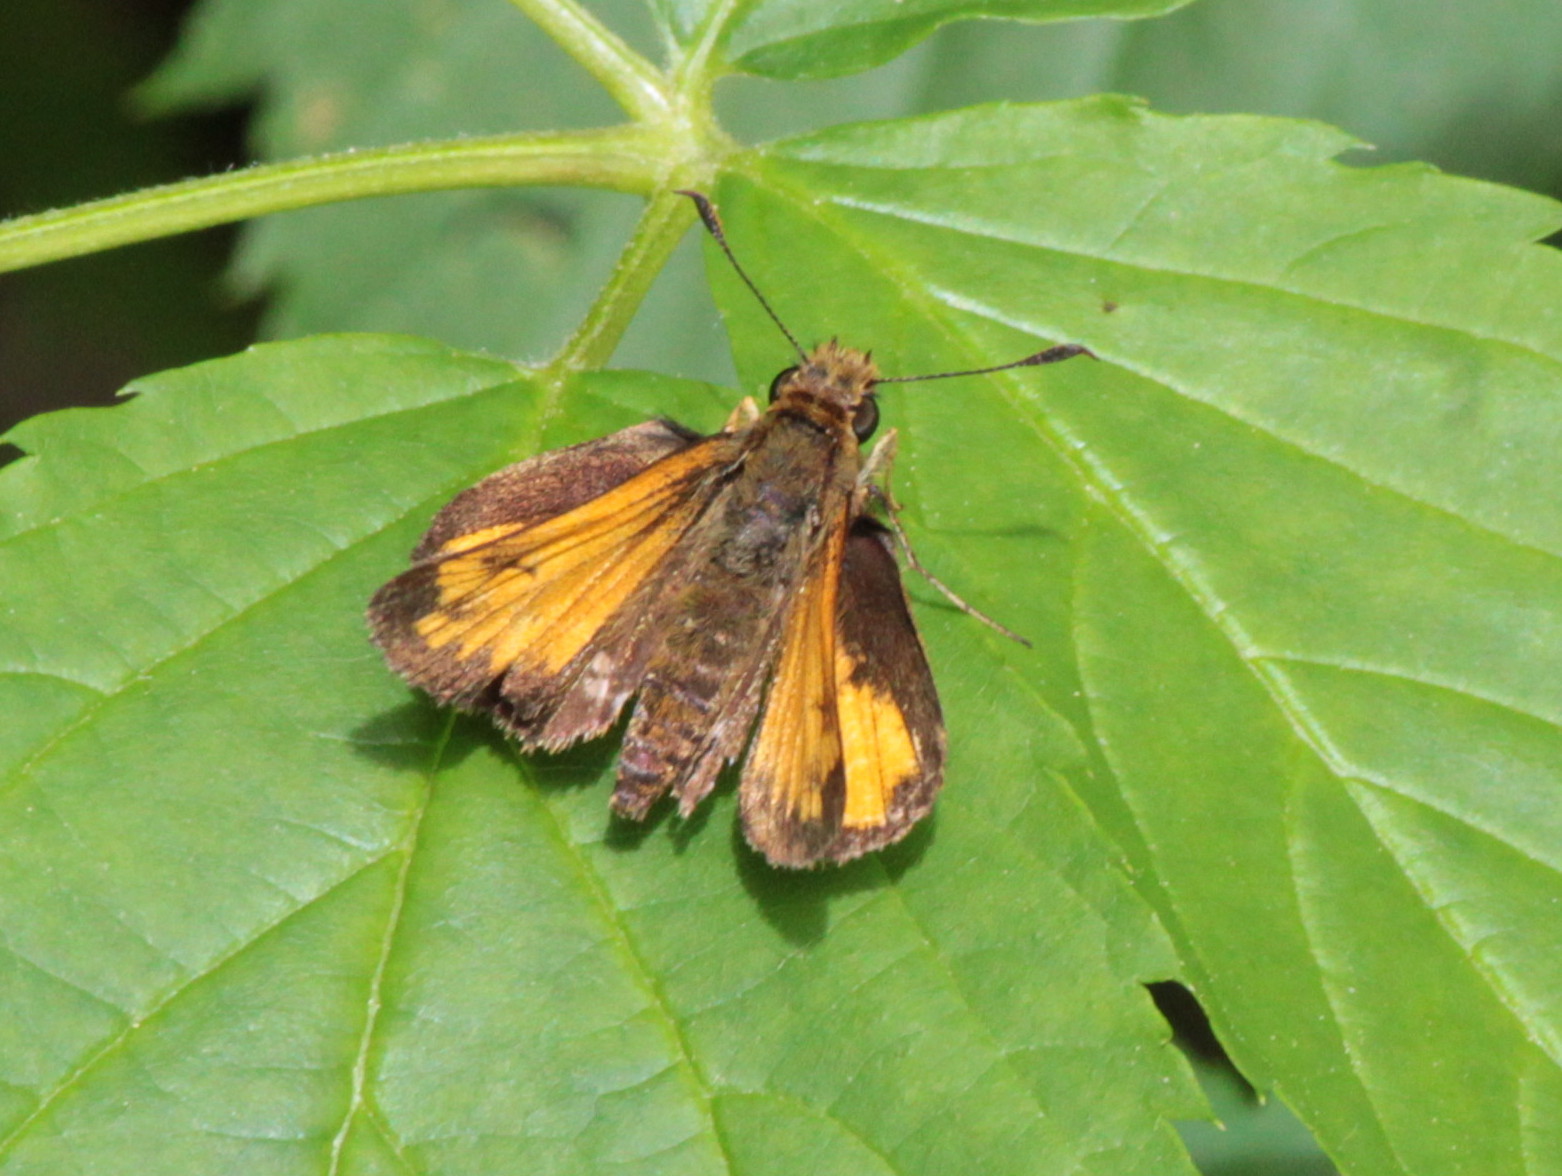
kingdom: Animalia
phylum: Arthropoda
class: Insecta
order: Lepidoptera
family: Hesperiidae
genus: Lon
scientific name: Lon hobomok
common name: Hobomok skipper
